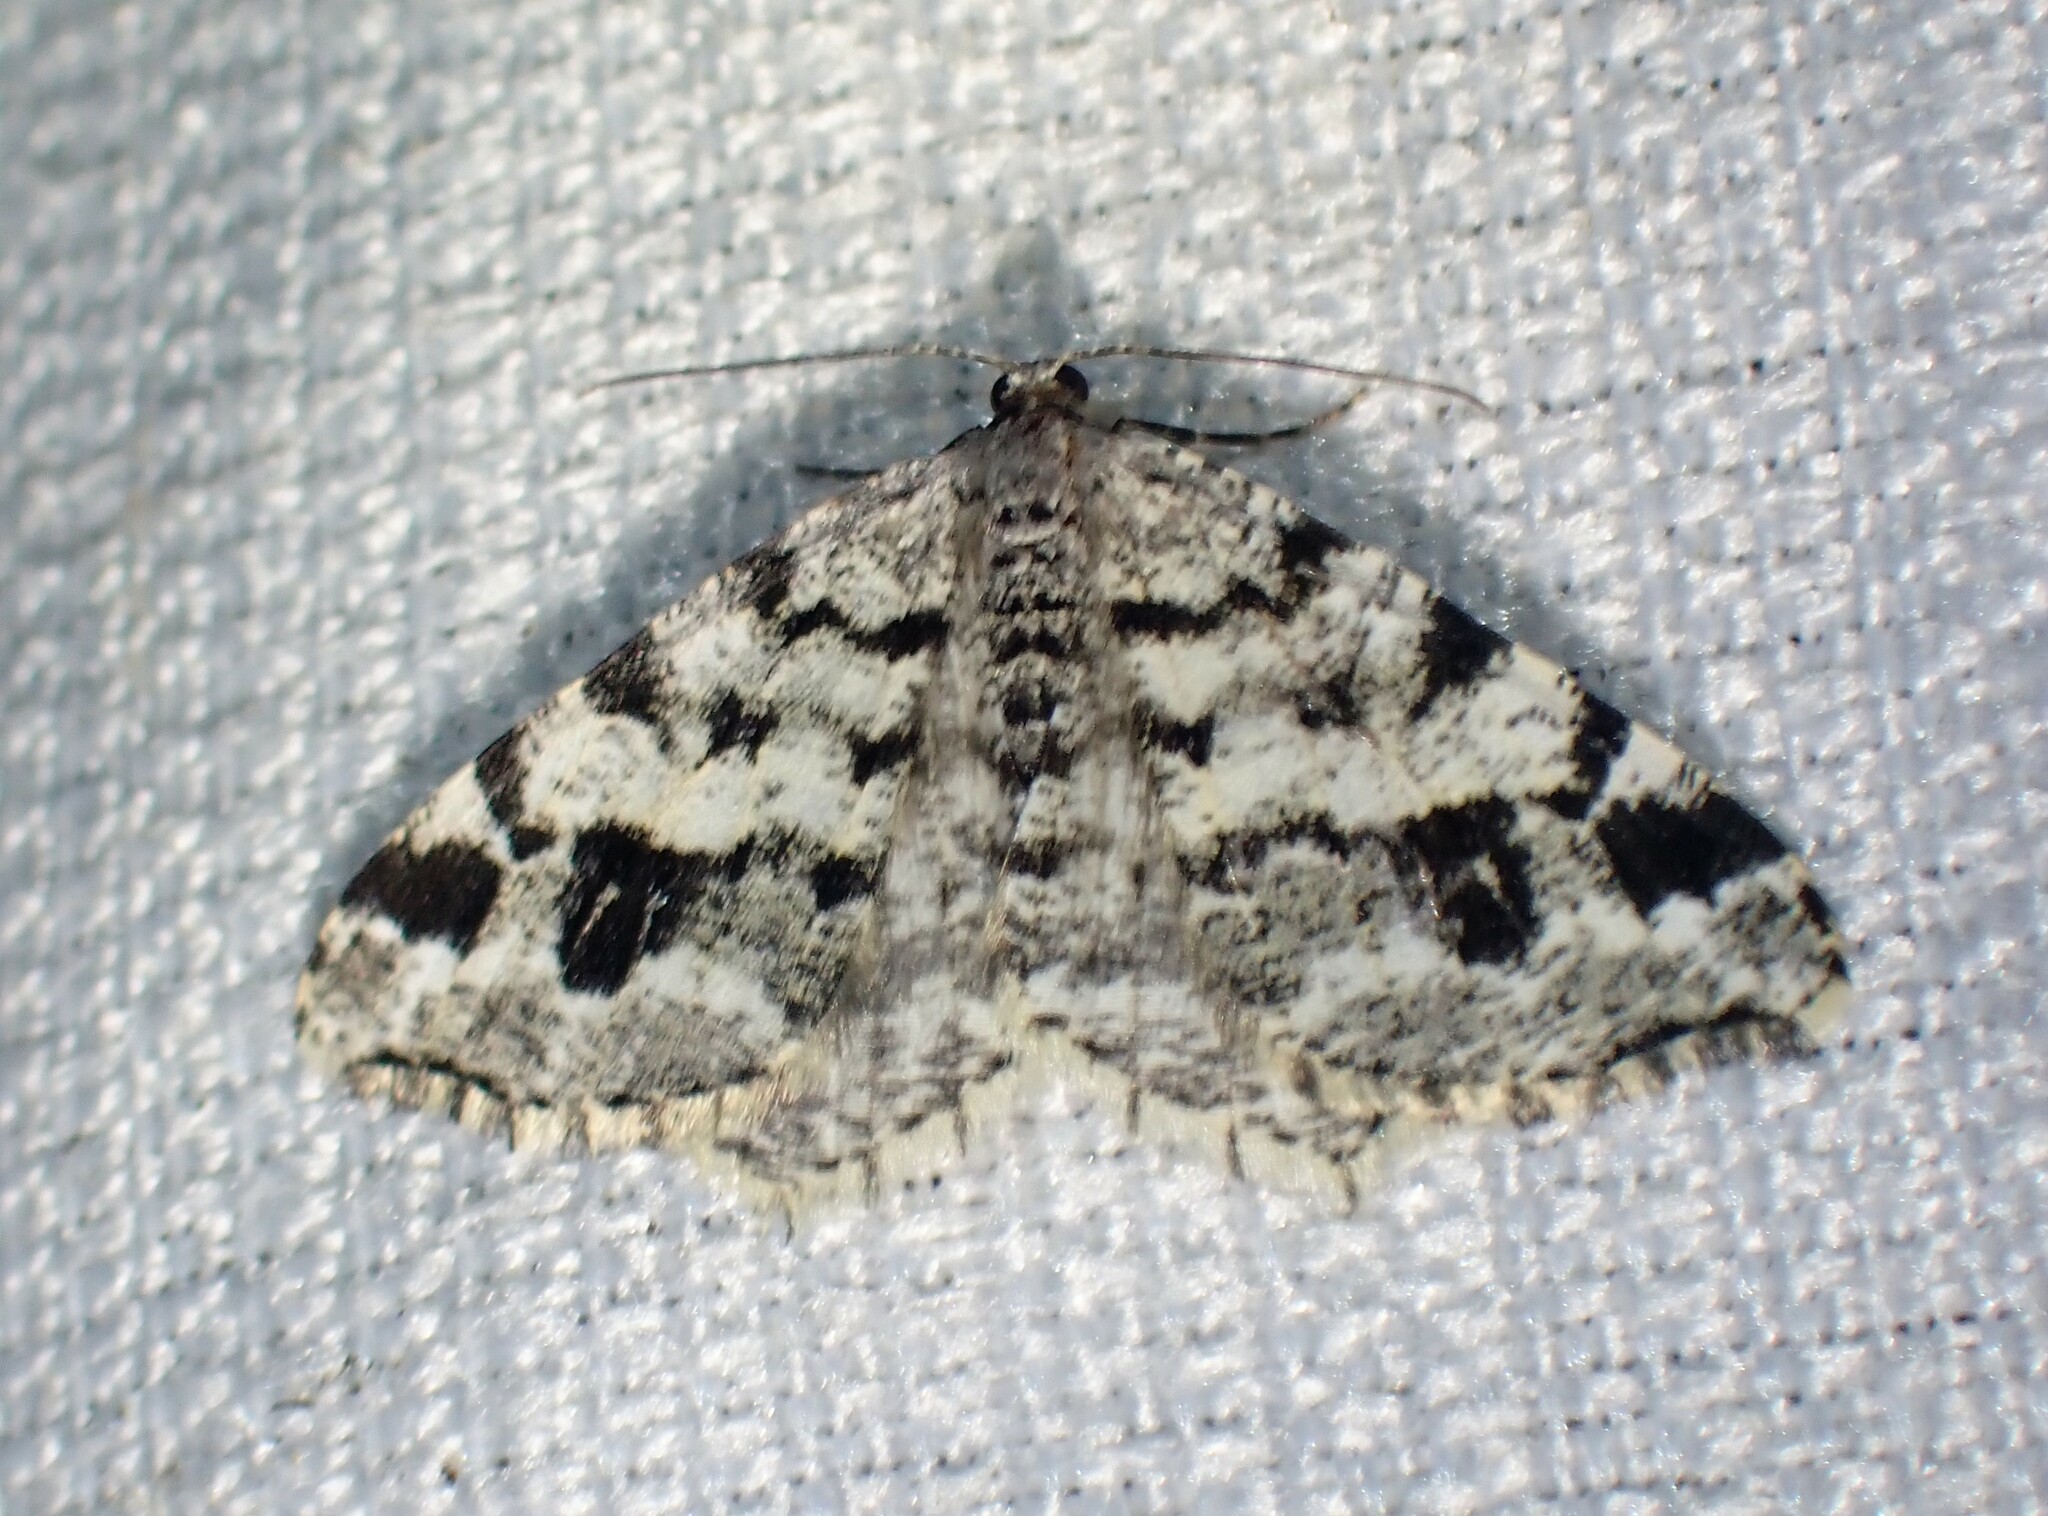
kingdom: Animalia
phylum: Arthropoda
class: Insecta
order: Lepidoptera
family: Geometridae
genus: Macaria
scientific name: Macaria oweni
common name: Owen's angle
